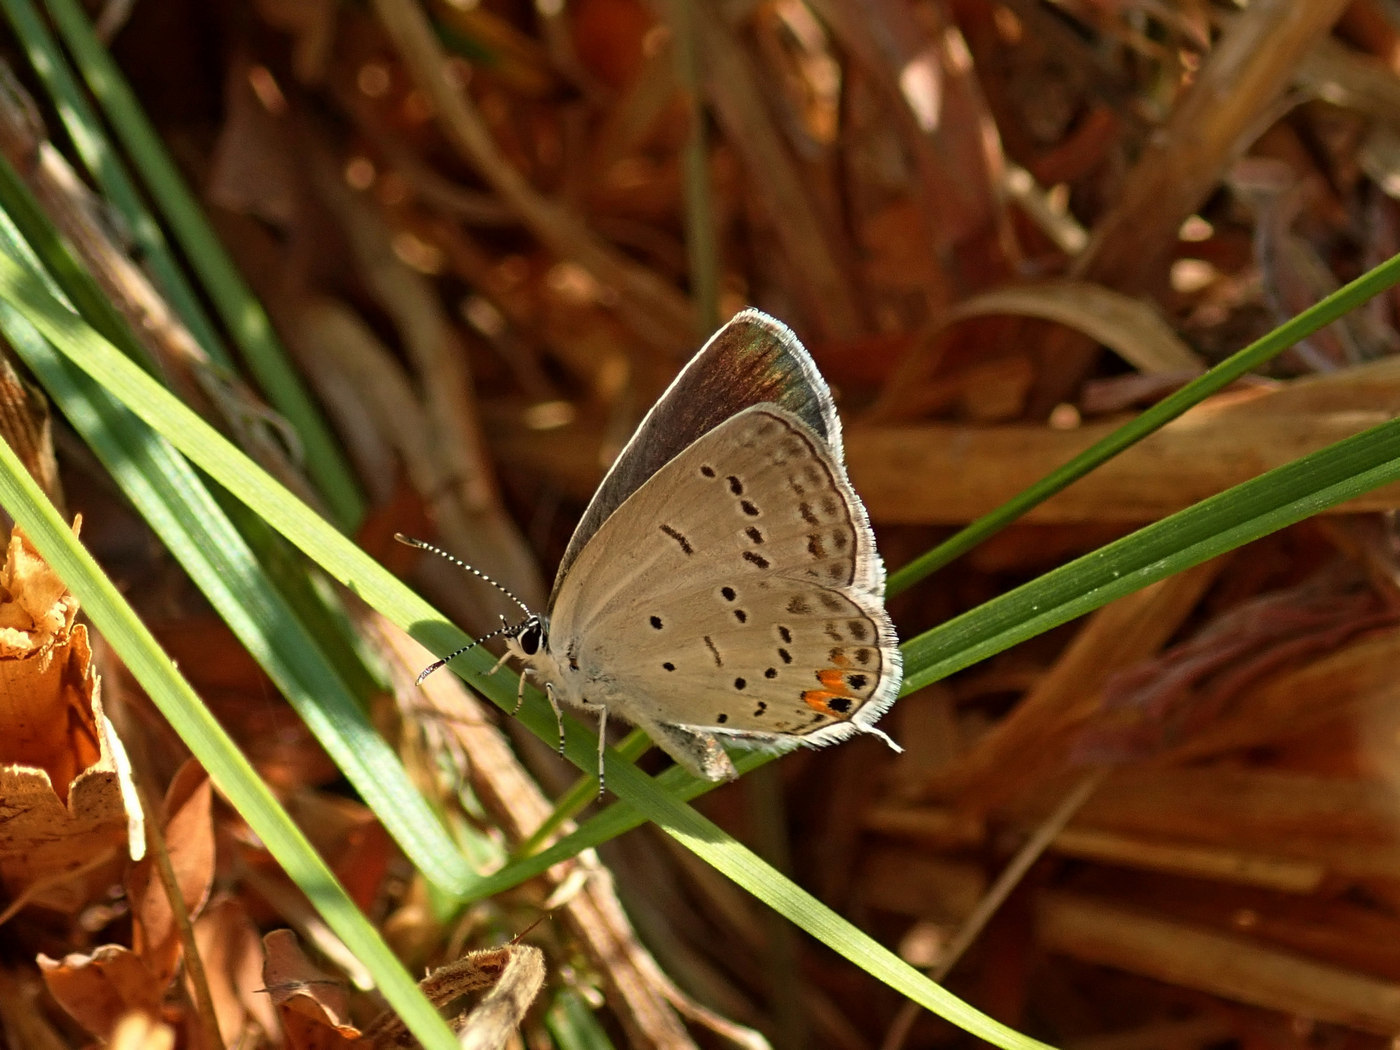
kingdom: Animalia
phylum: Arthropoda
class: Insecta
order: Lepidoptera
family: Lycaenidae
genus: Elkalyce
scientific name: Elkalyce comyntas
